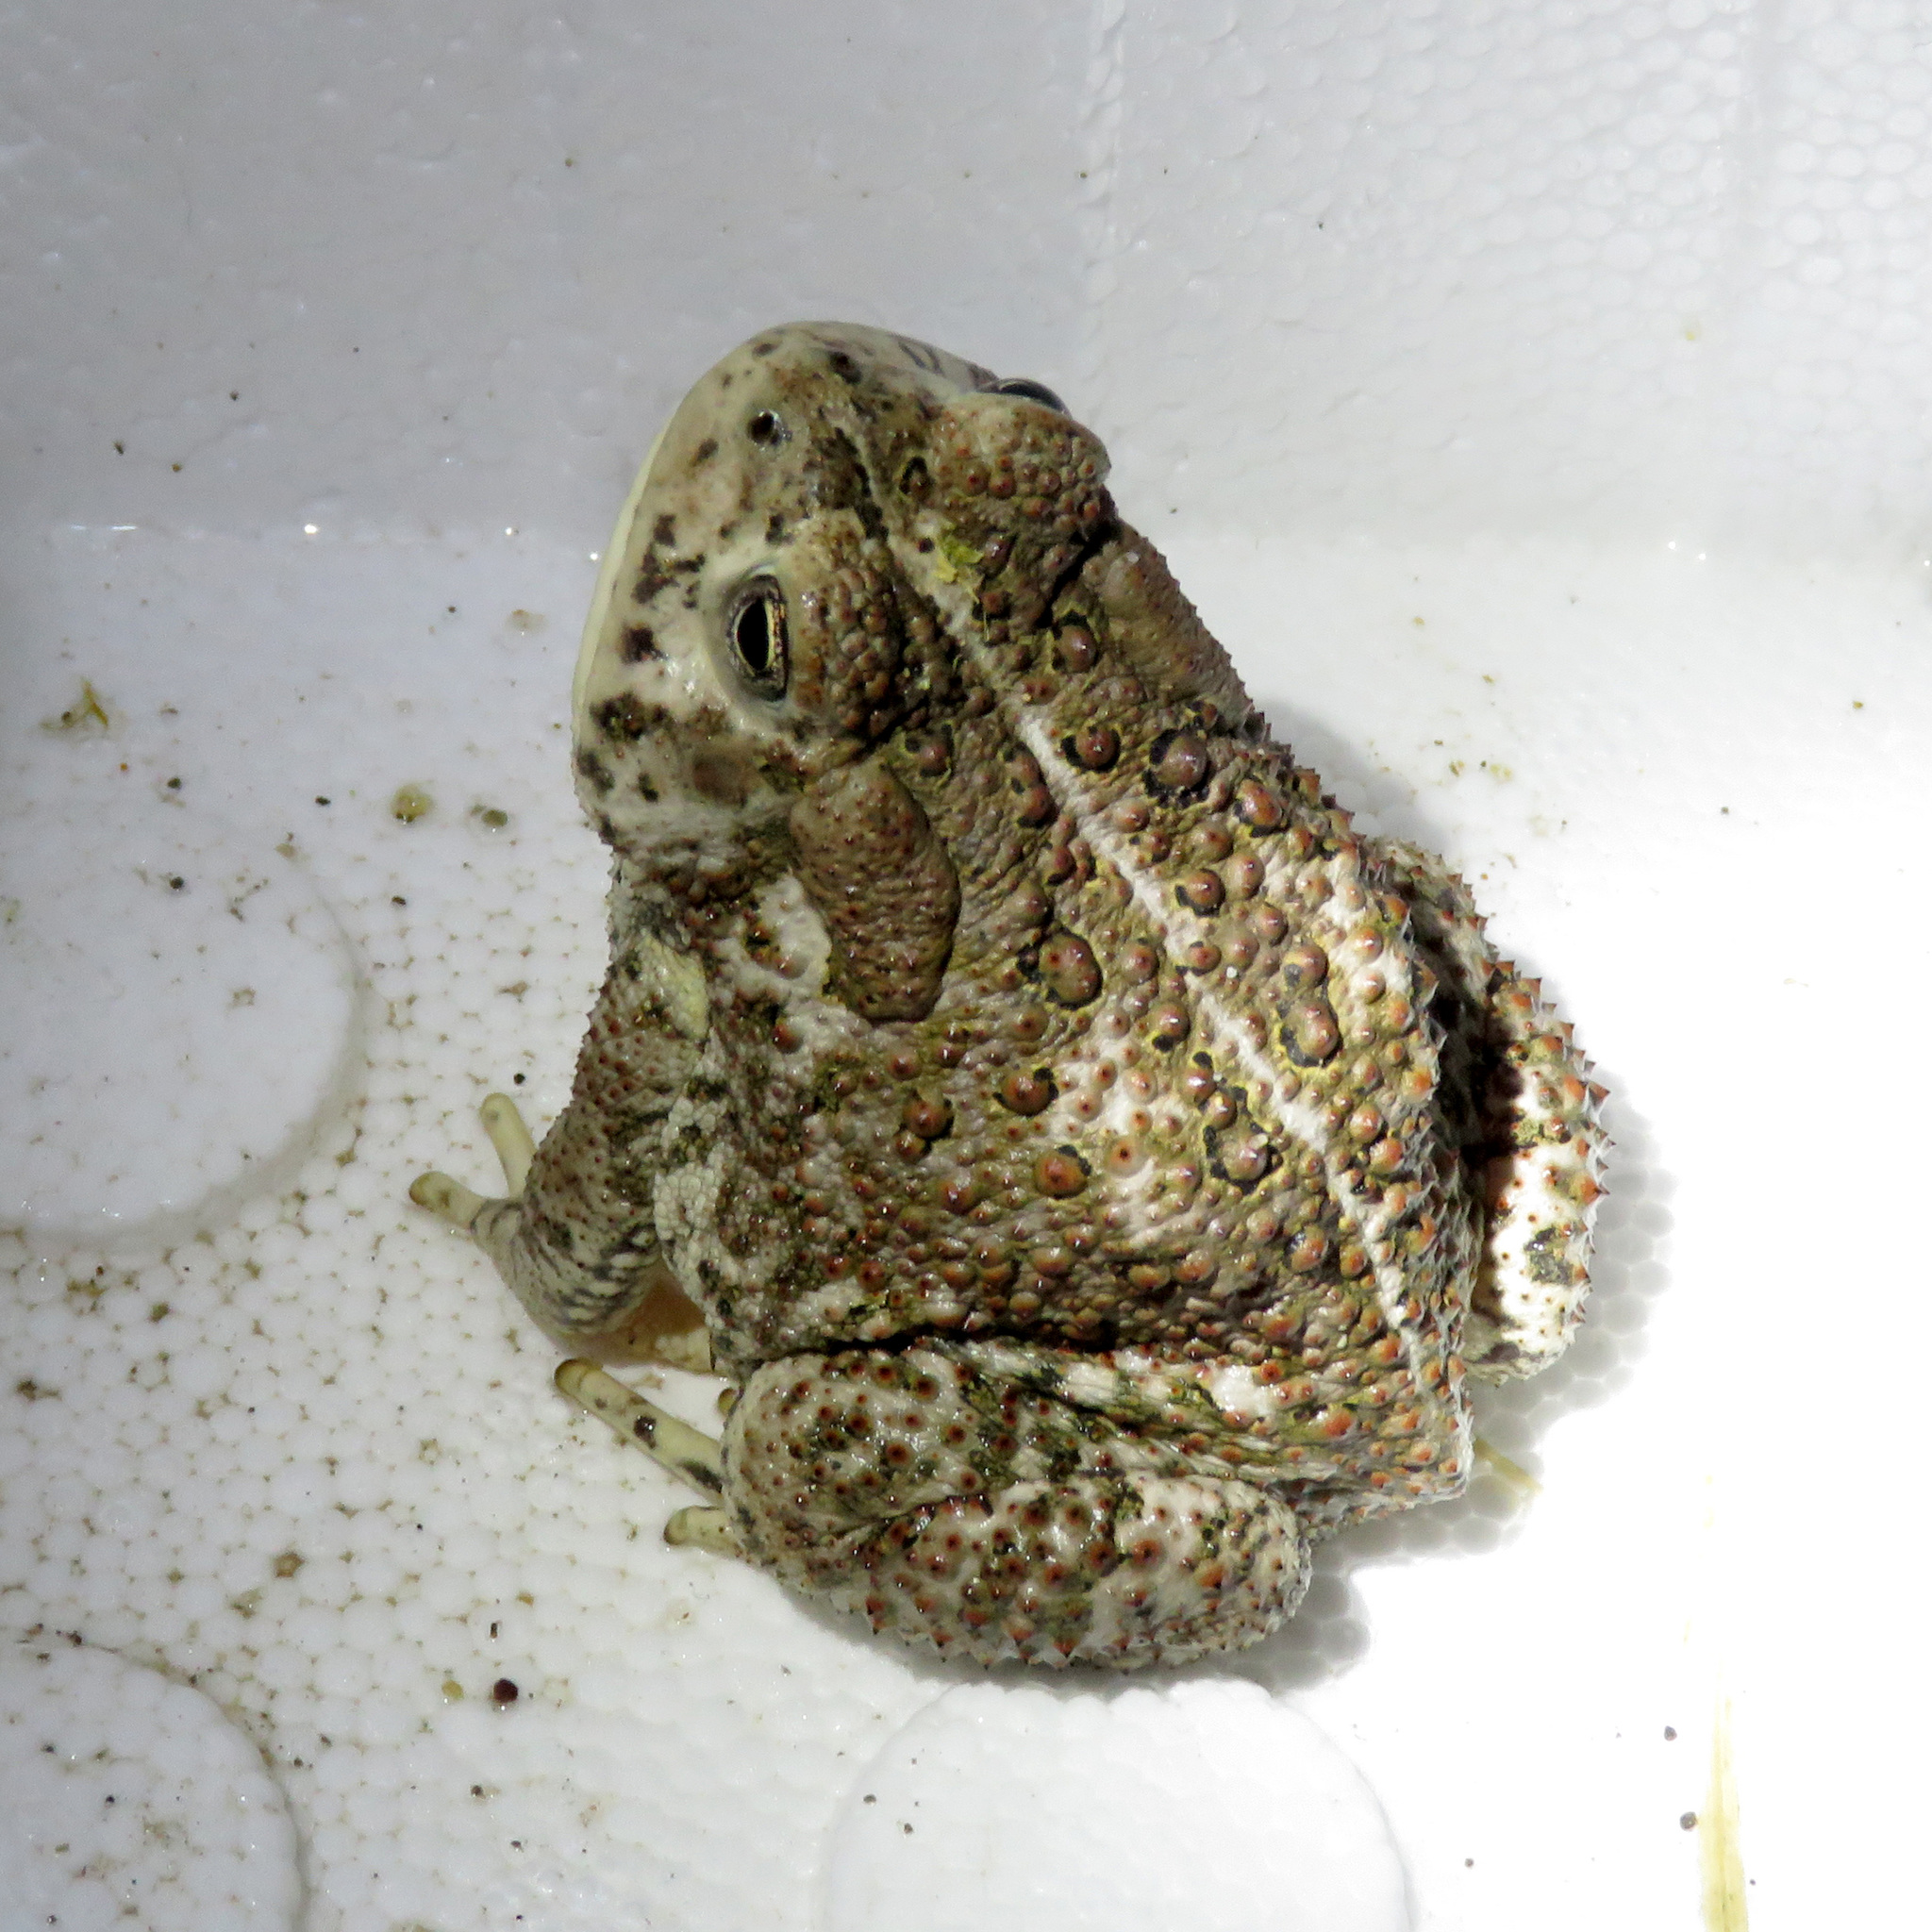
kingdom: Animalia
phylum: Chordata
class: Amphibia
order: Anura
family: Bufonidae
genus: Anaxyrus
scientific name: Anaxyrus woodhousii
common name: Woodhouse's toad
